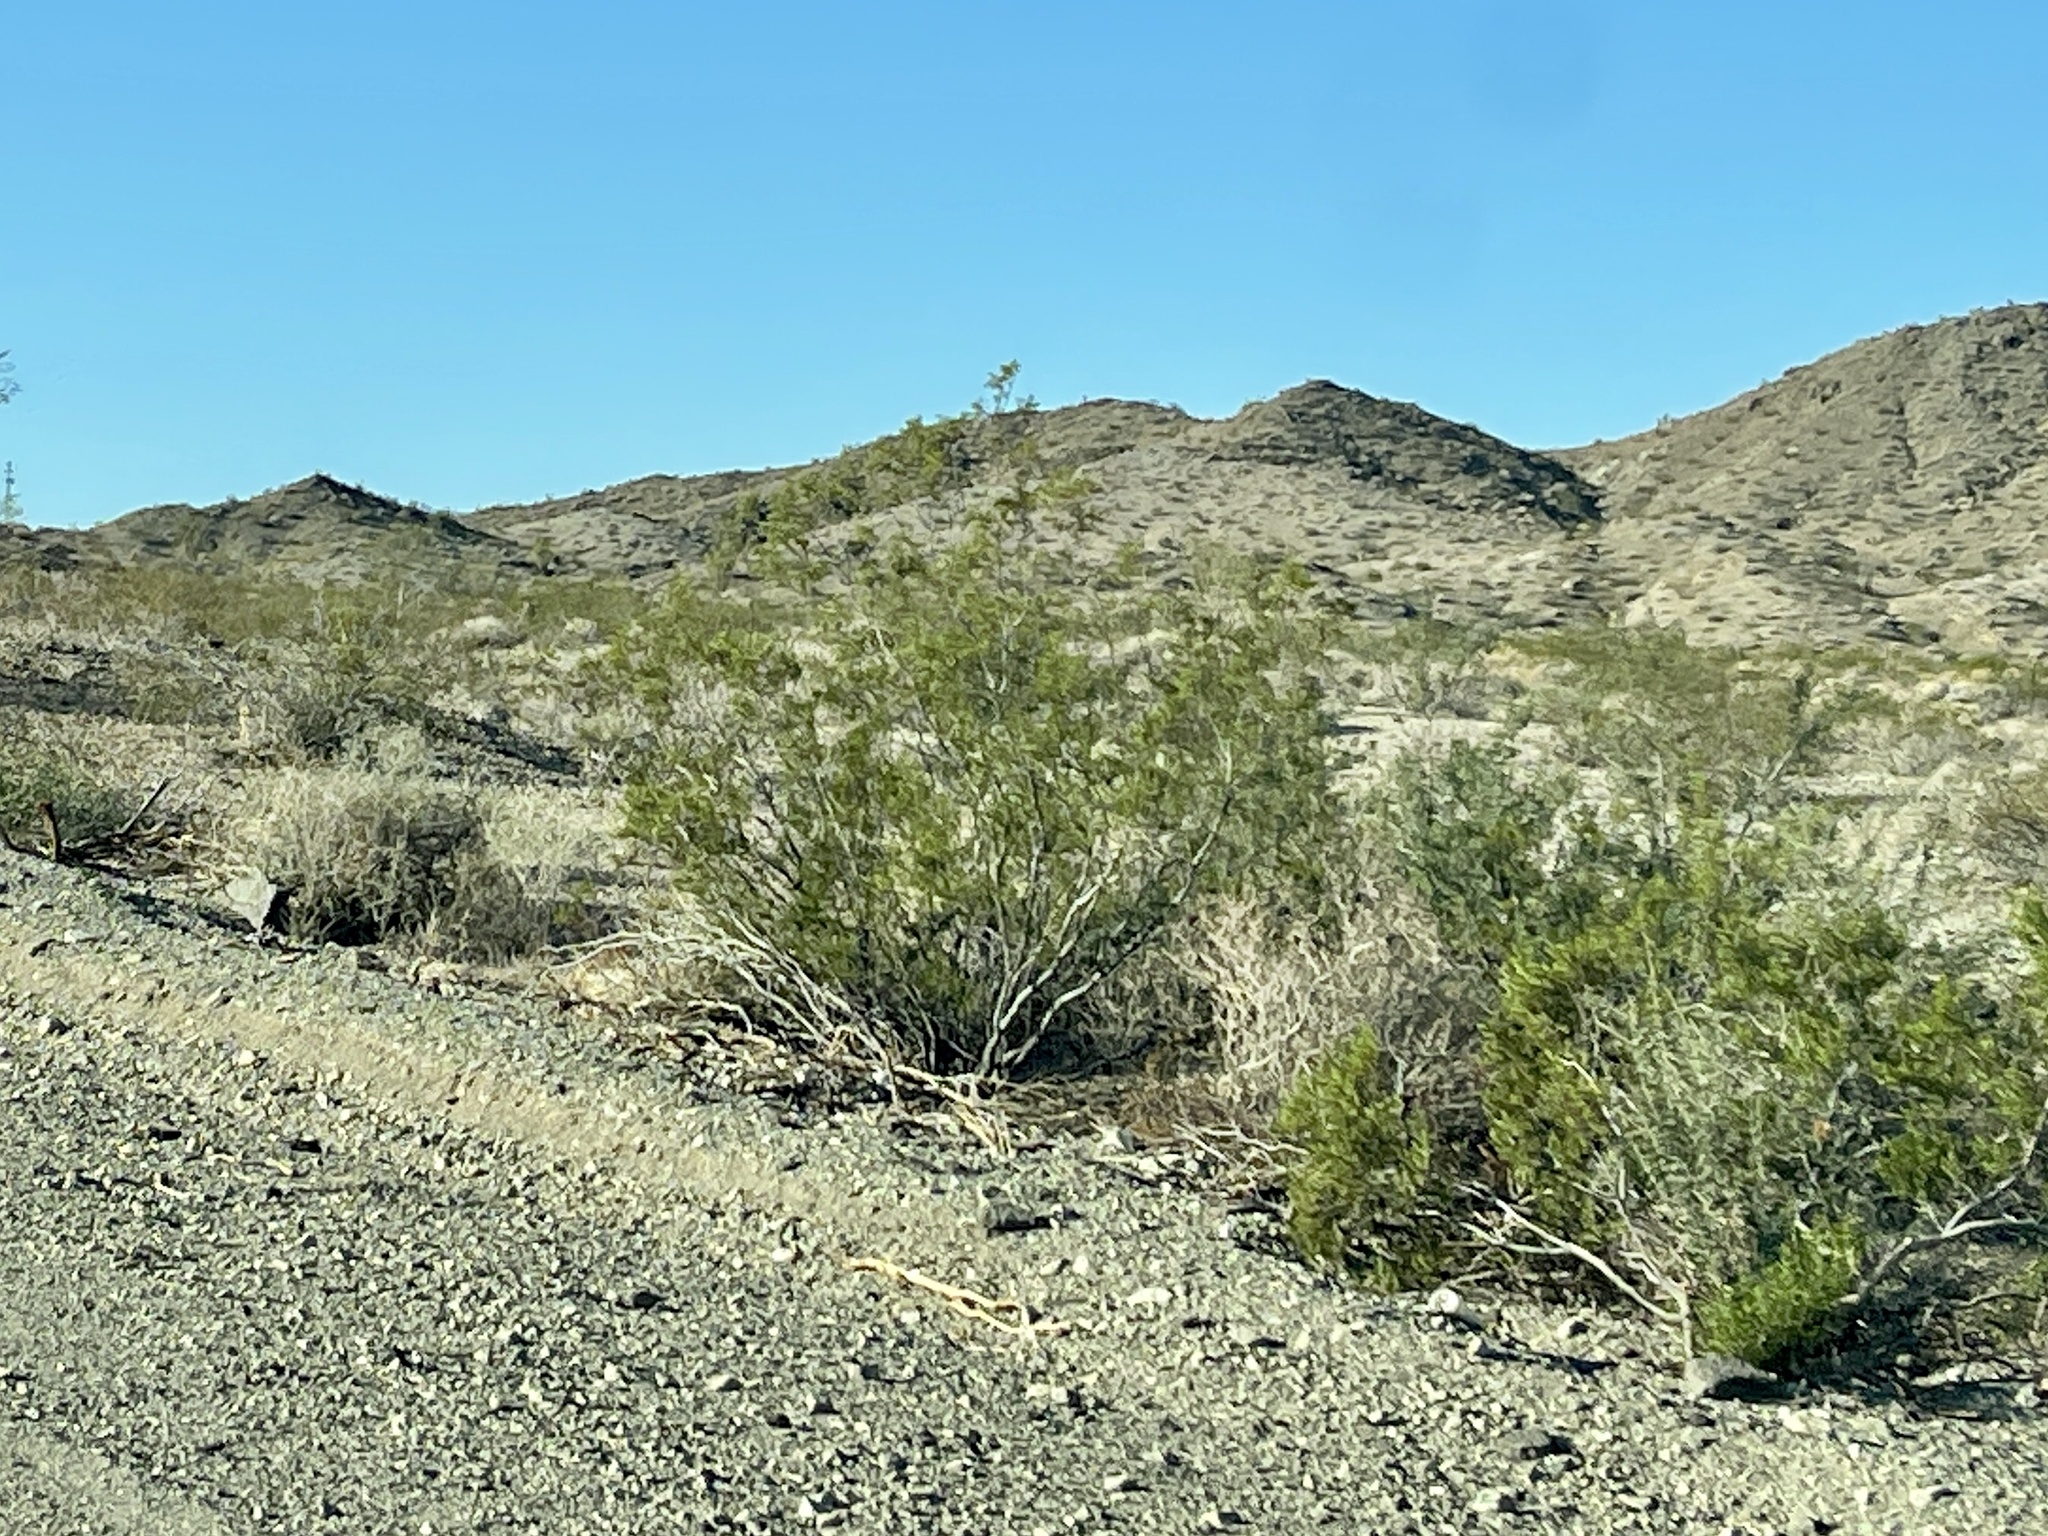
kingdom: Plantae
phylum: Tracheophyta
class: Magnoliopsida
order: Zygophyllales
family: Zygophyllaceae
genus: Larrea
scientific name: Larrea tridentata
